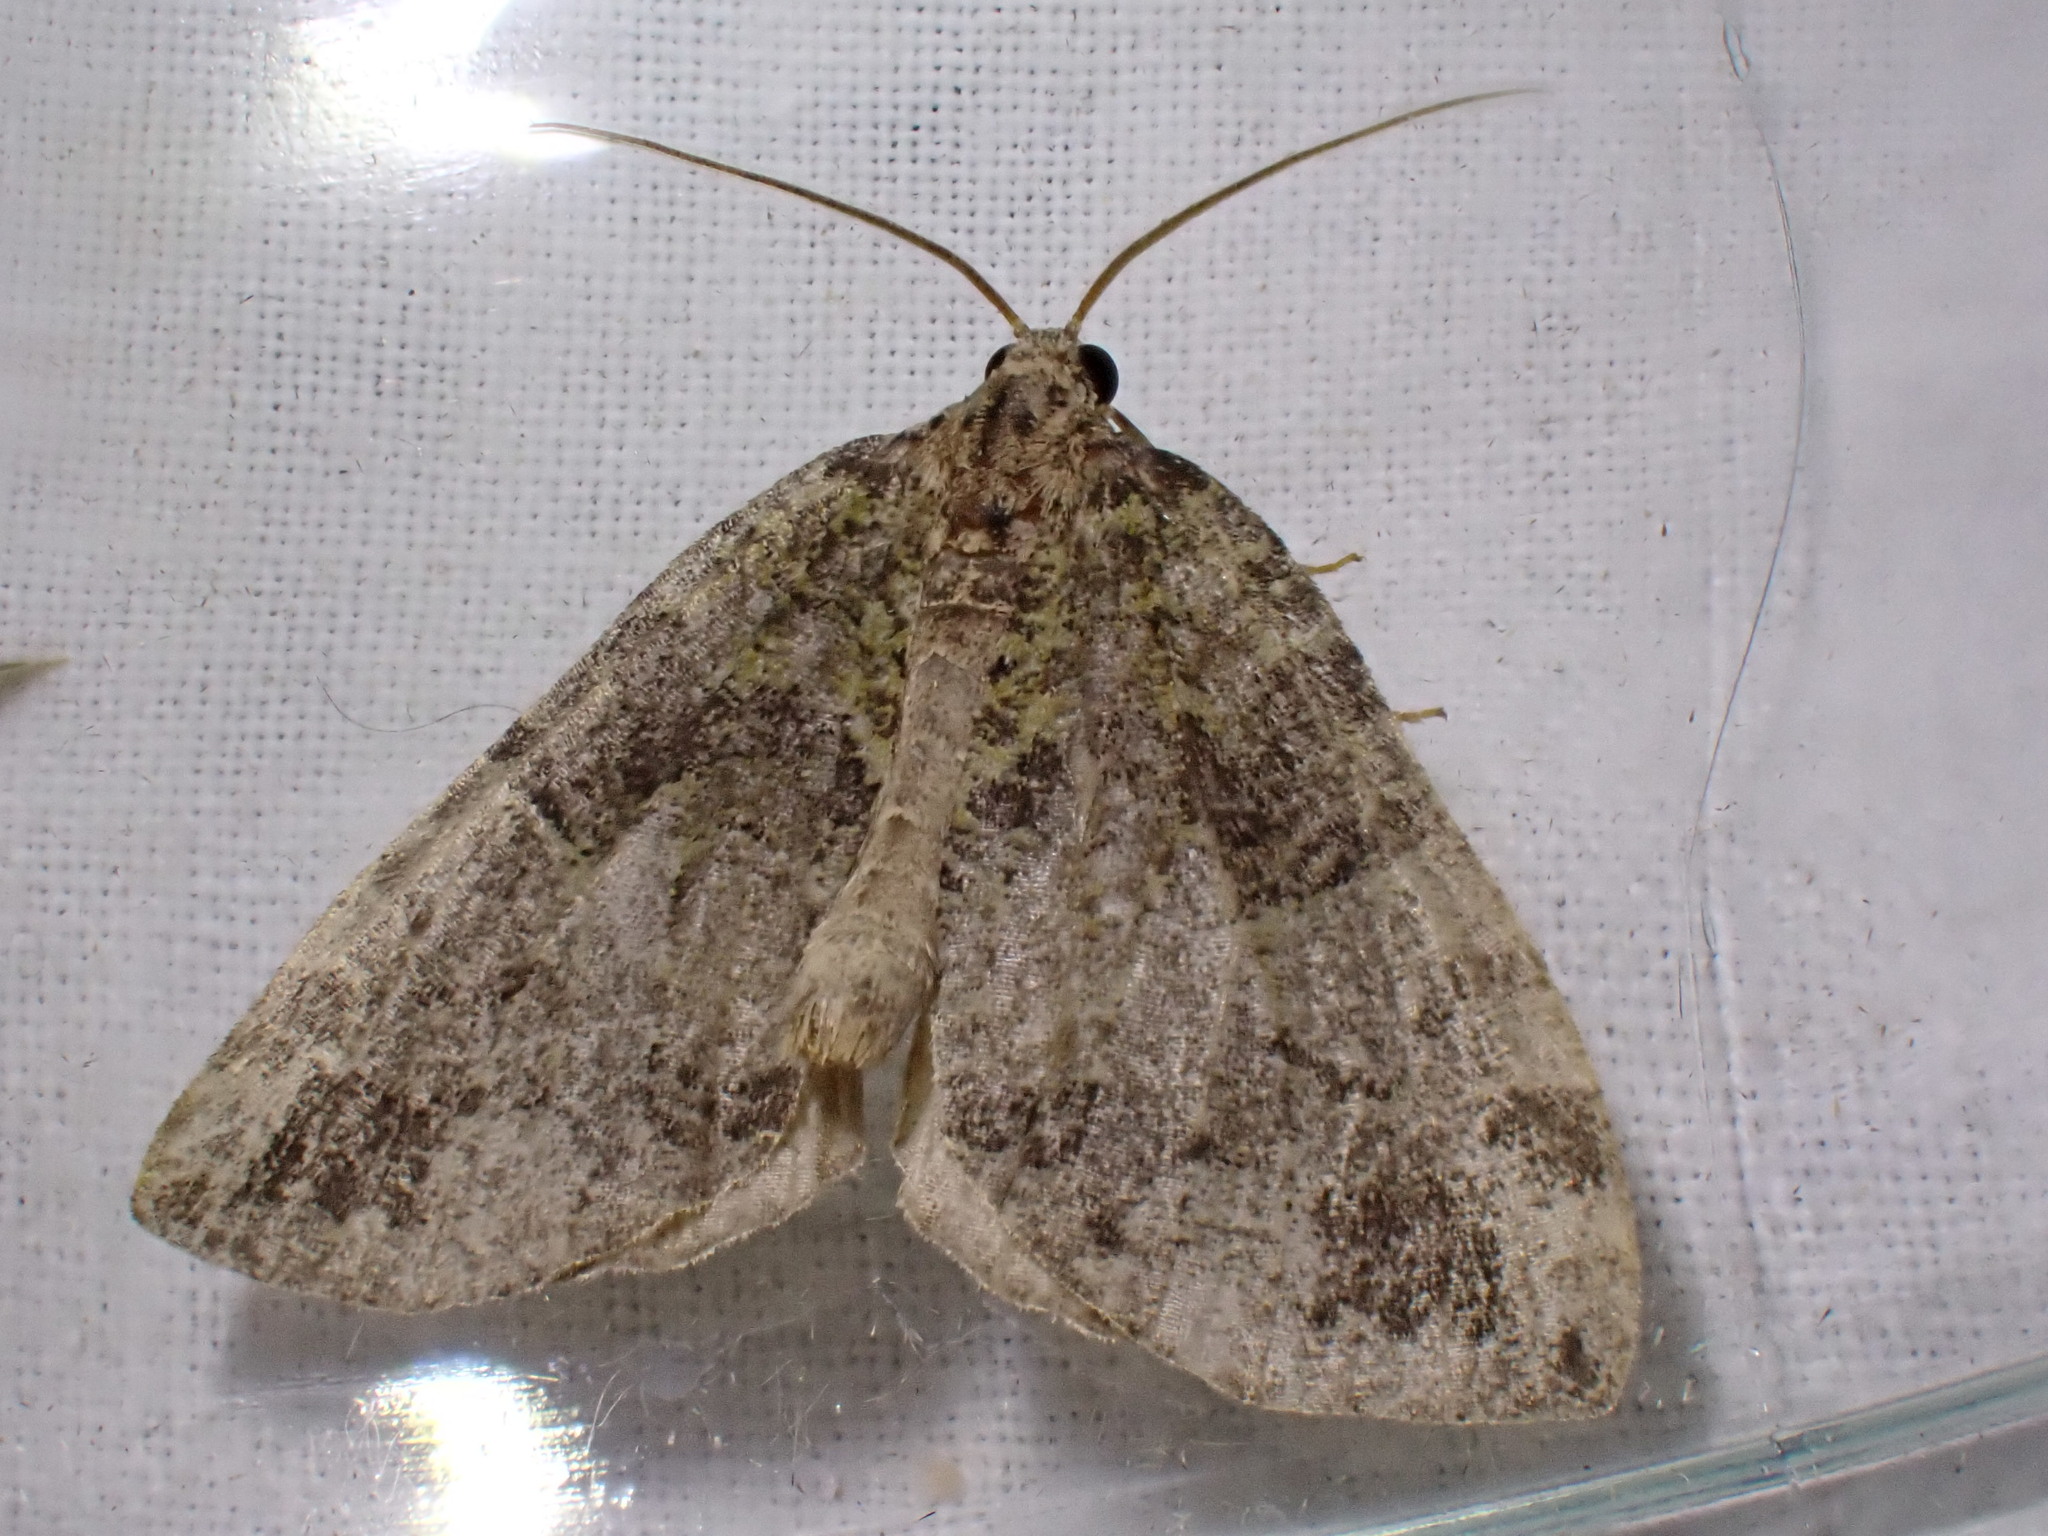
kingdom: Animalia
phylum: Arthropoda
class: Insecta
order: Lepidoptera
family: Geometridae
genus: Hydriomena
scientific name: Hydriomena furcata
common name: July highflyer
